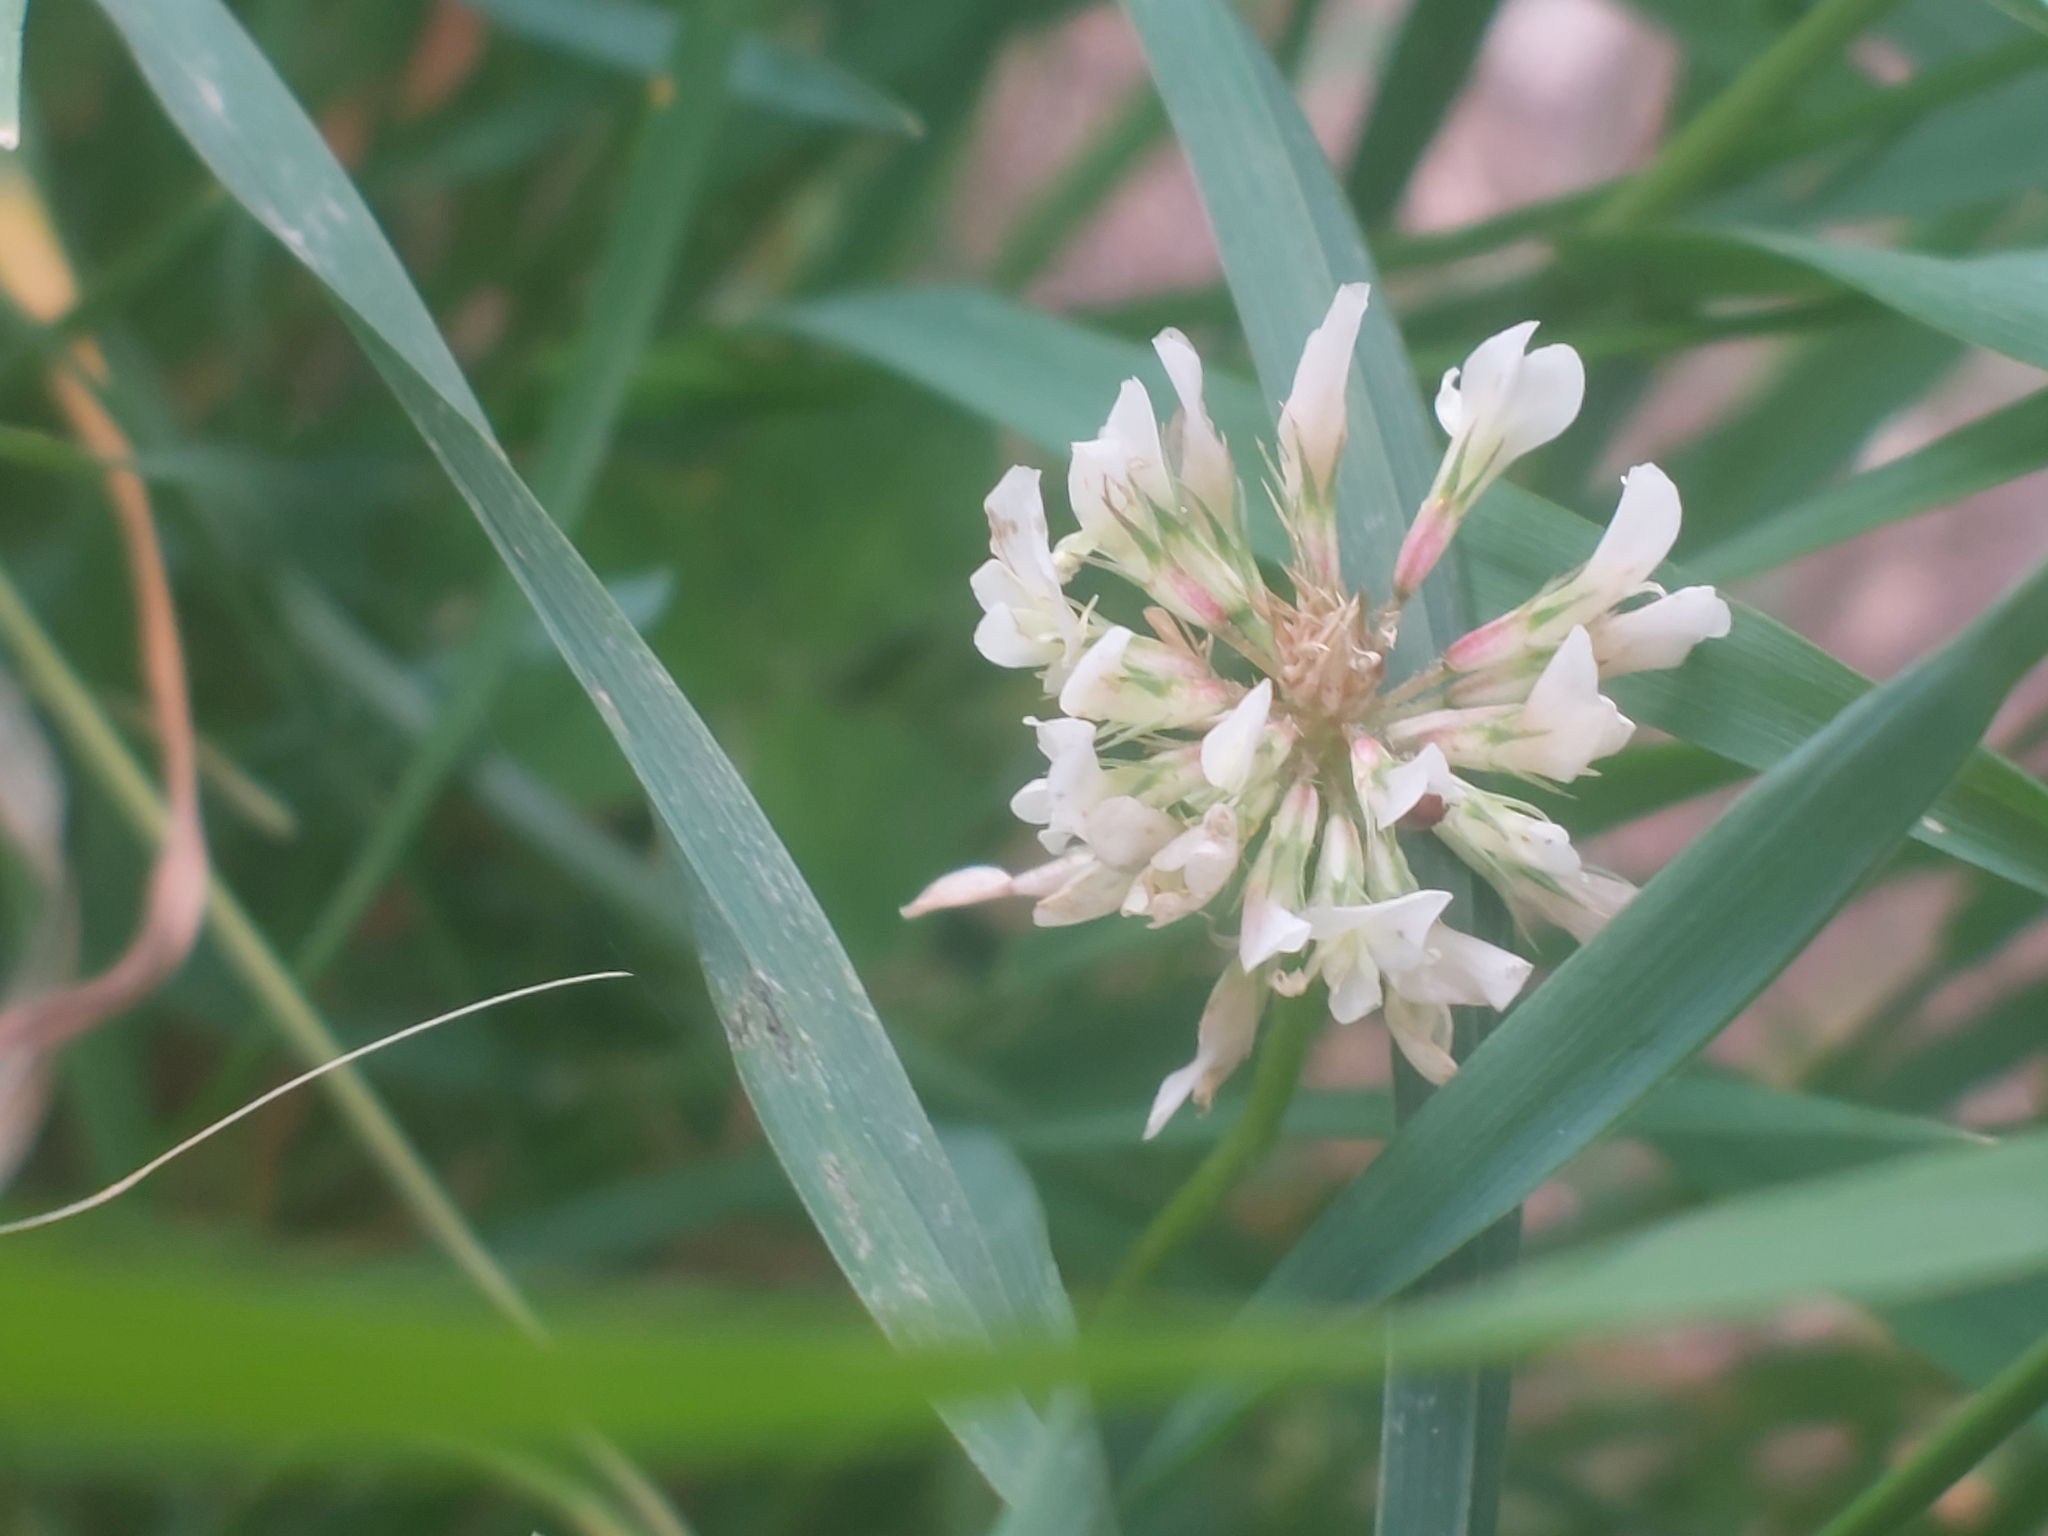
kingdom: Plantae
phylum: Tracheophyta
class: Magnoliopsida
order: Fabales
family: Fabaceae
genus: Trifolium
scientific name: Trifolium repens
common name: White clover
